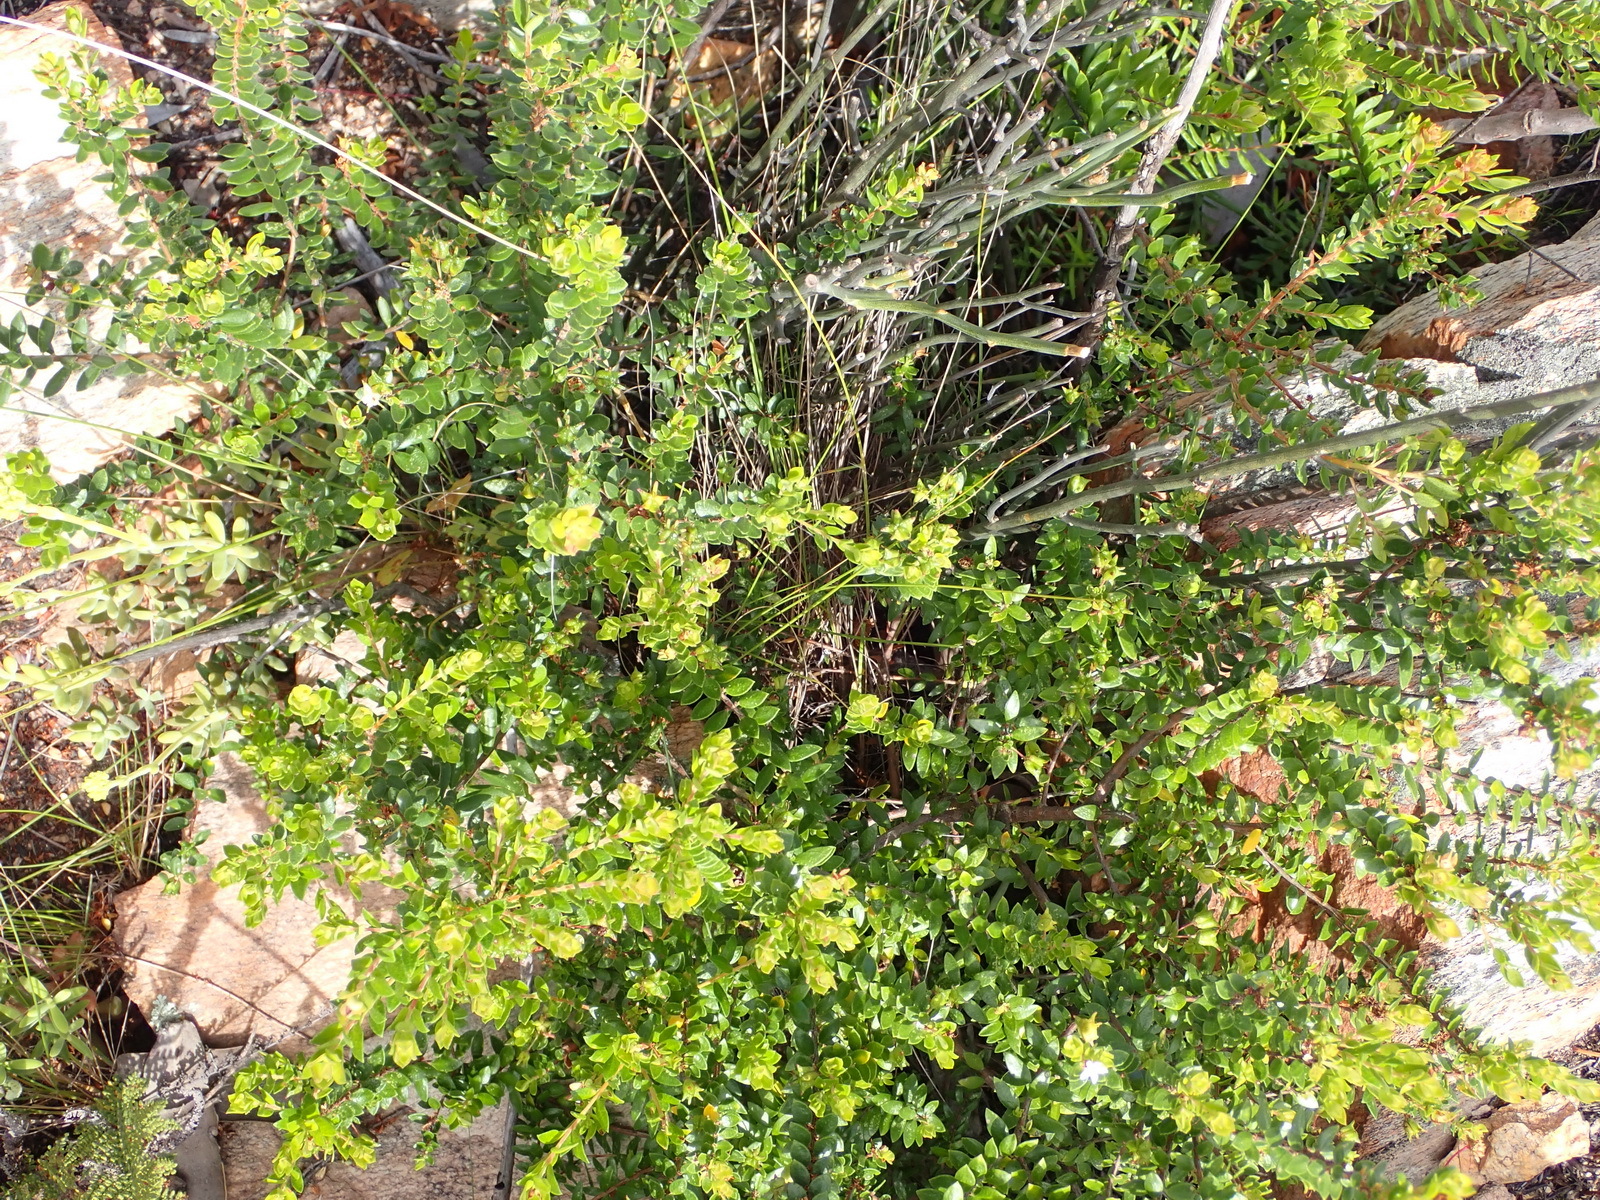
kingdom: Plantae
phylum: Tracheophyta
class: Magnoliopsida
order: Sapindales
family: Rutaceae
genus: Agathosma
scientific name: Agathosma ovata
